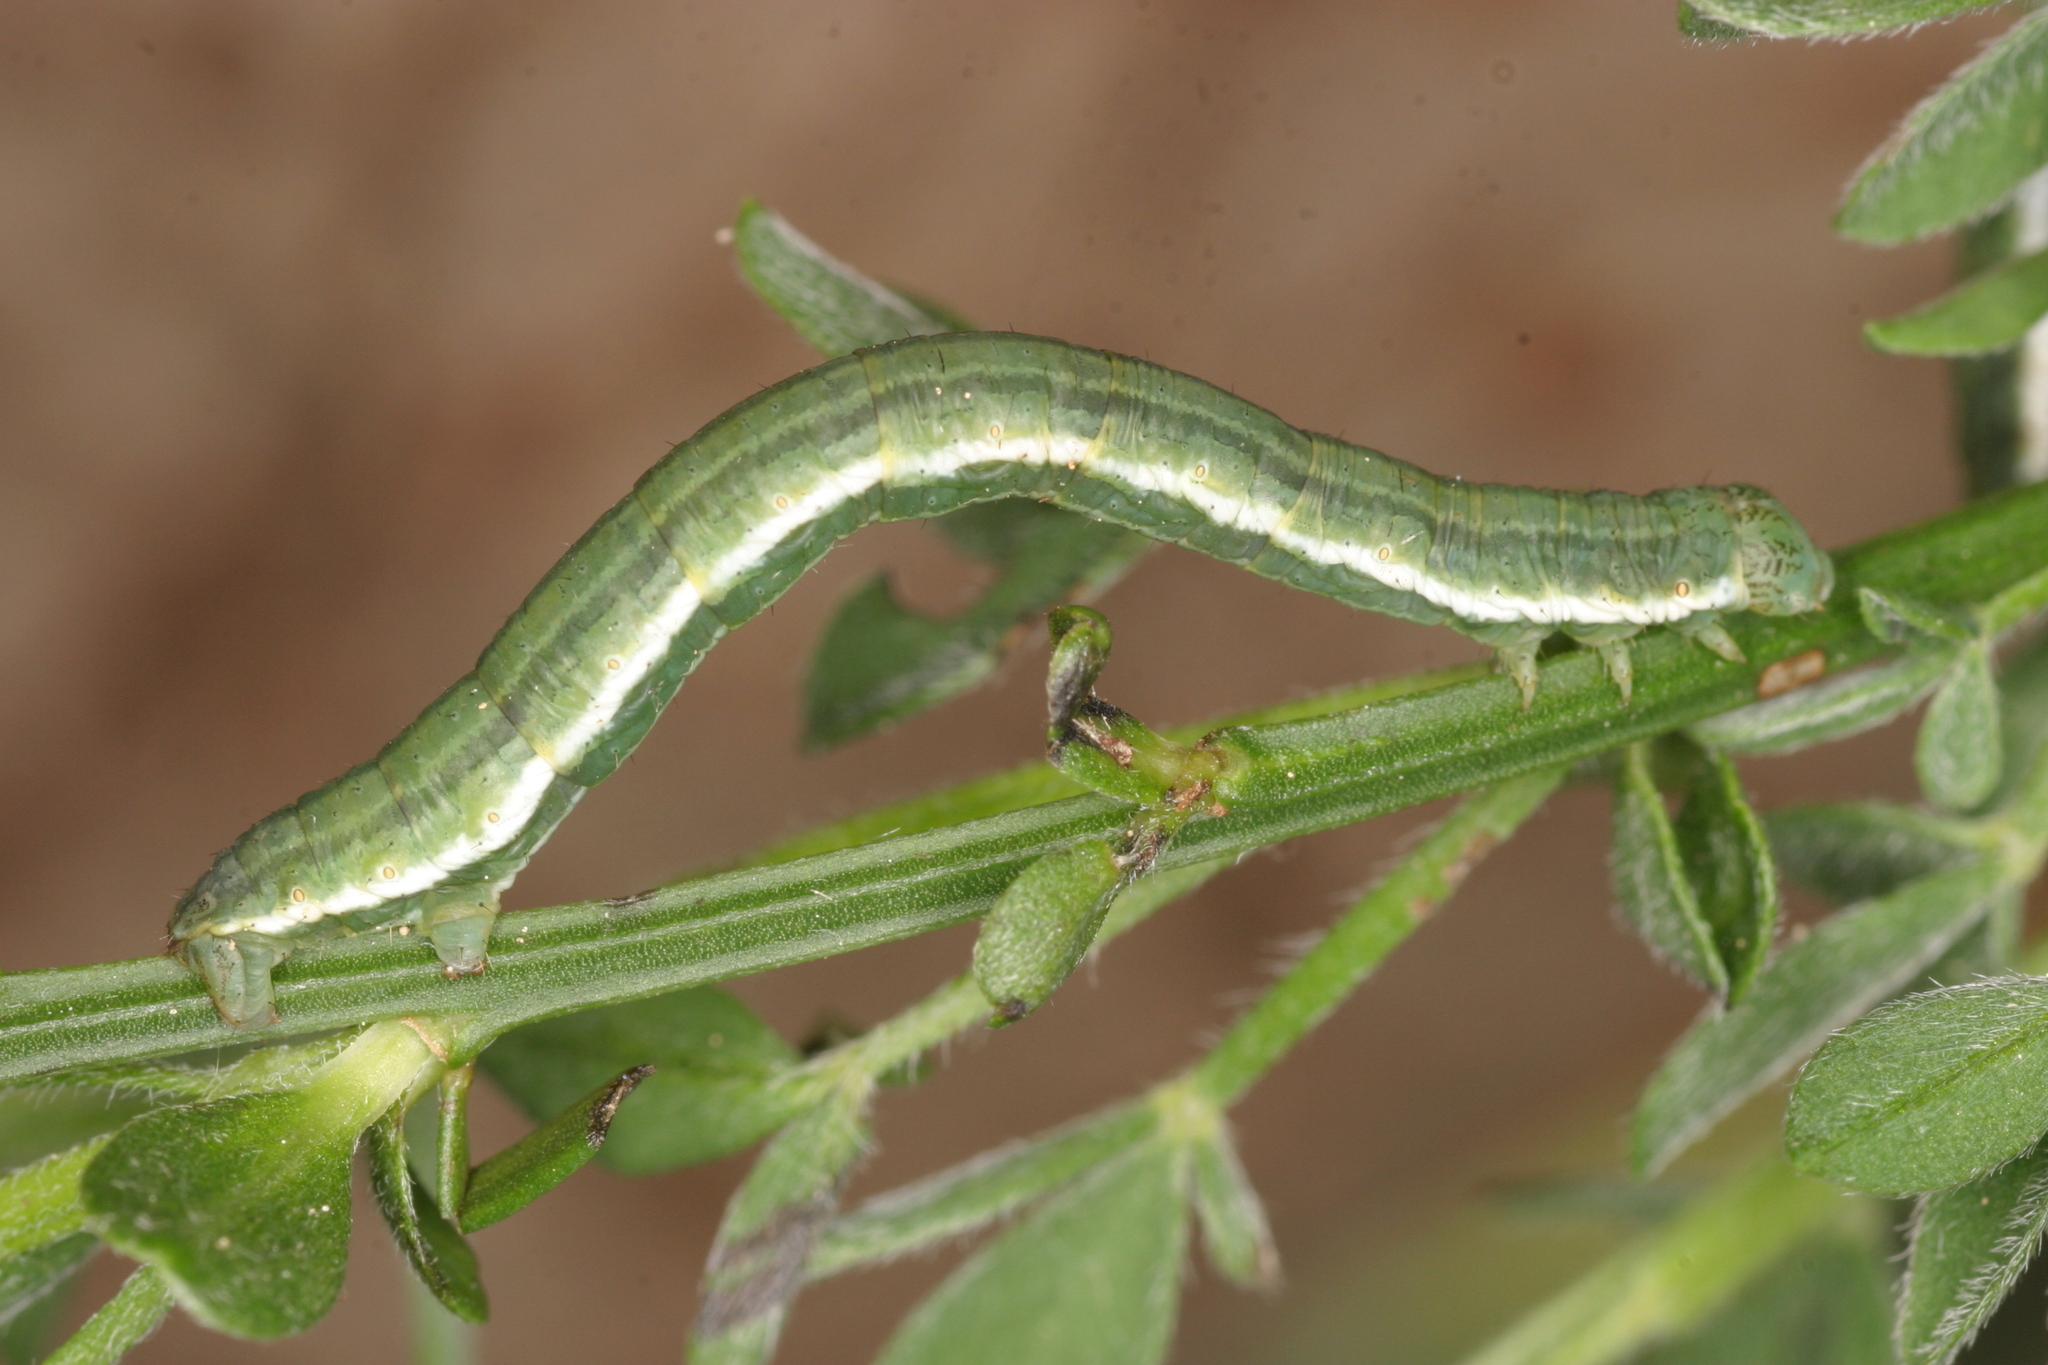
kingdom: Animalia
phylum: Arthropoda
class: Insecta
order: Lepidoptera
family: Geometridae
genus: Chesias
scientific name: Chesias legatella
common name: Streak
